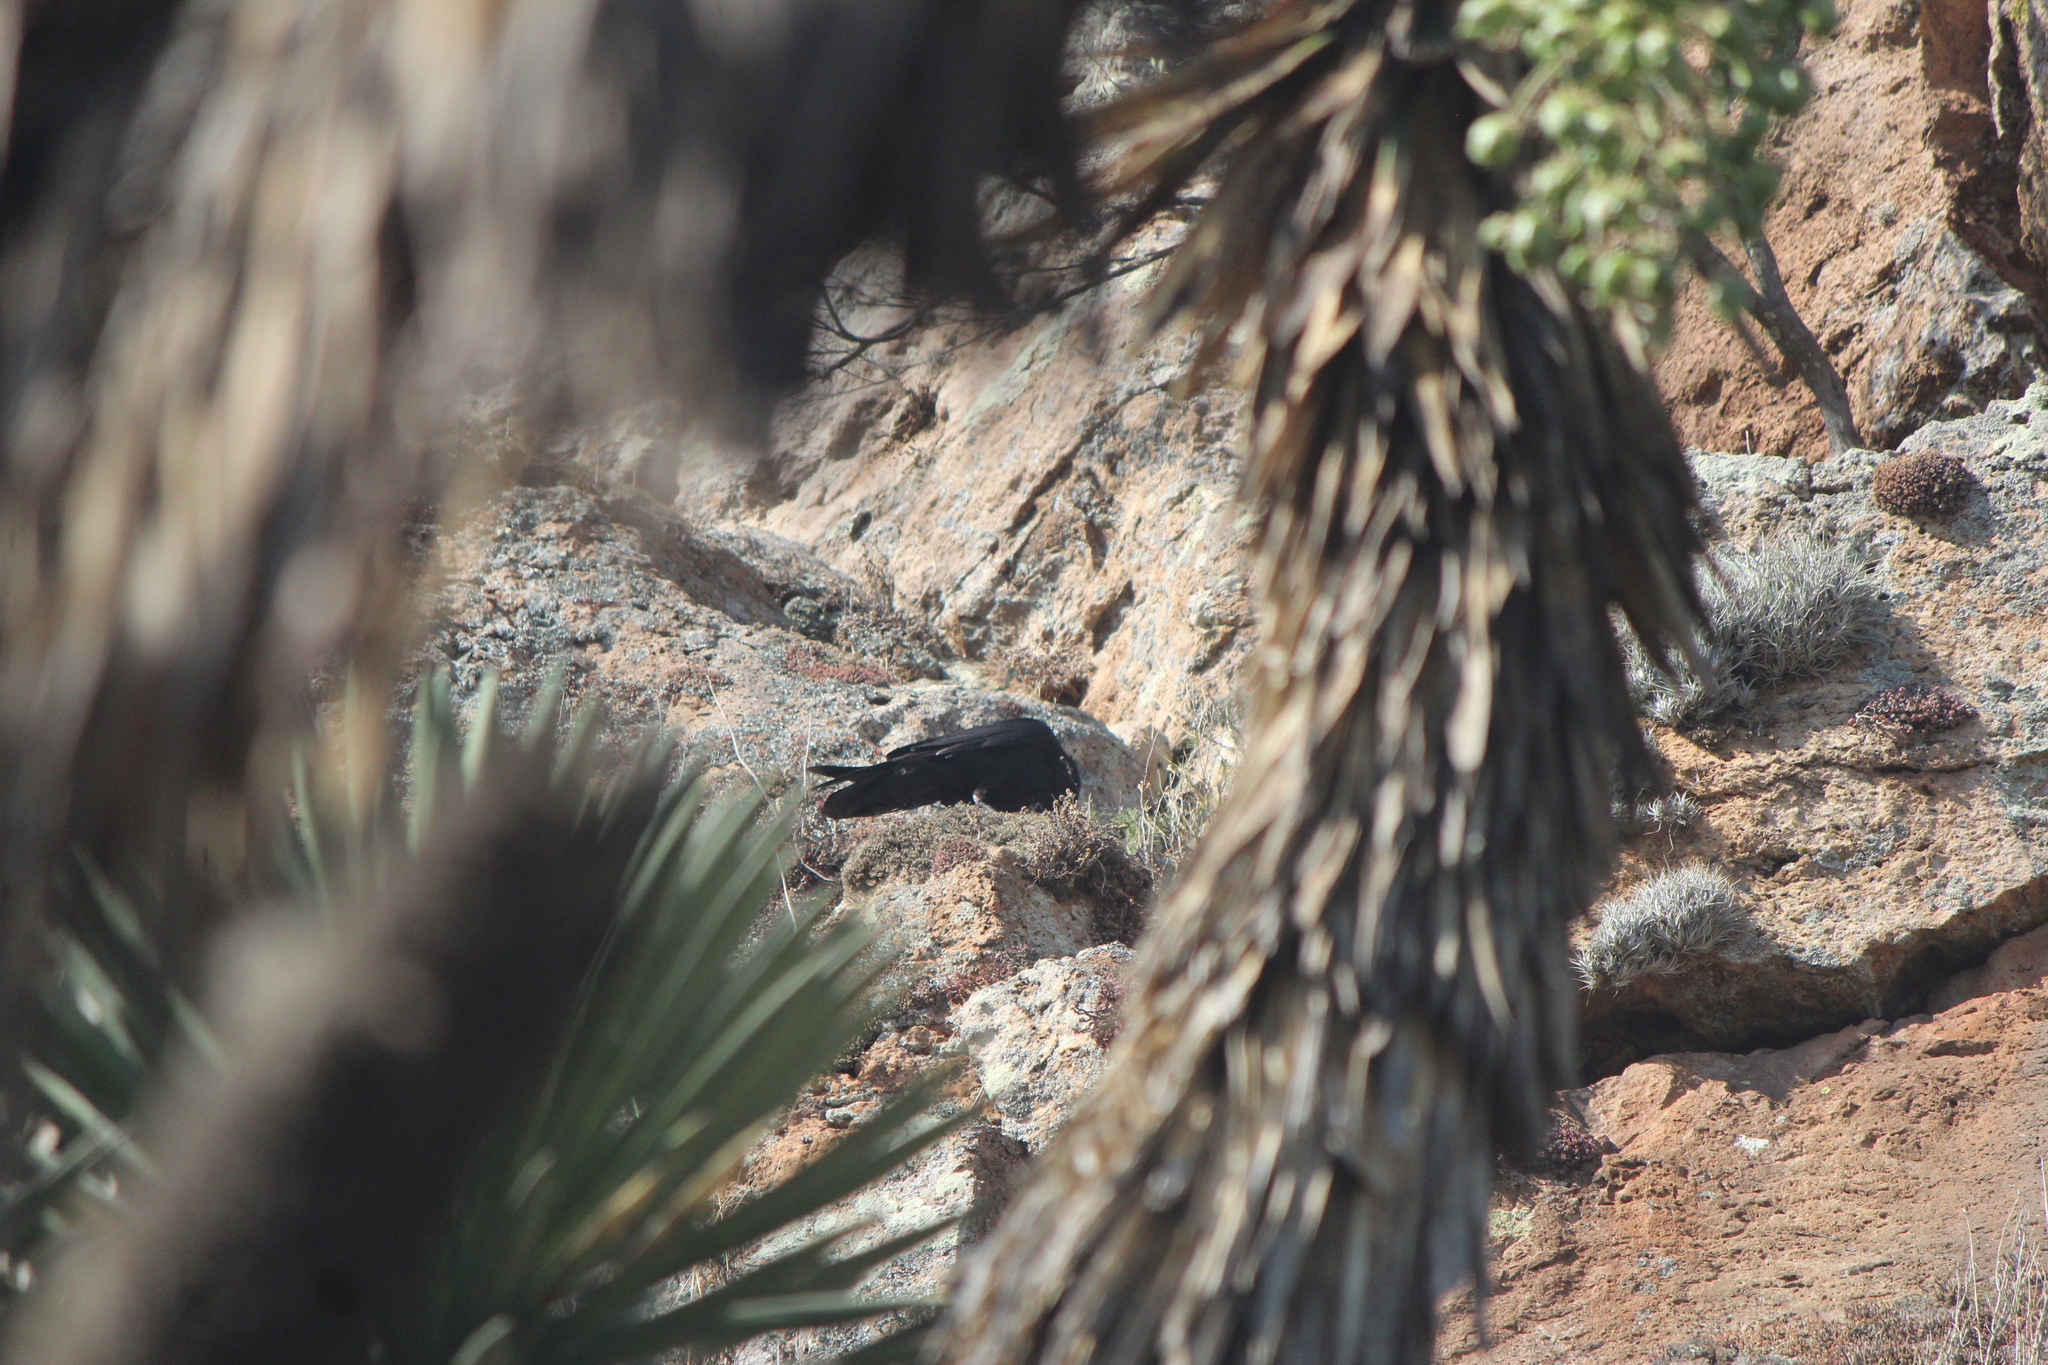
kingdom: Animalia
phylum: Chordata
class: Aves
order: Passeriformes
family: Corvidae
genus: Corvus
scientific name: Corvus corax
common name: Common raven
